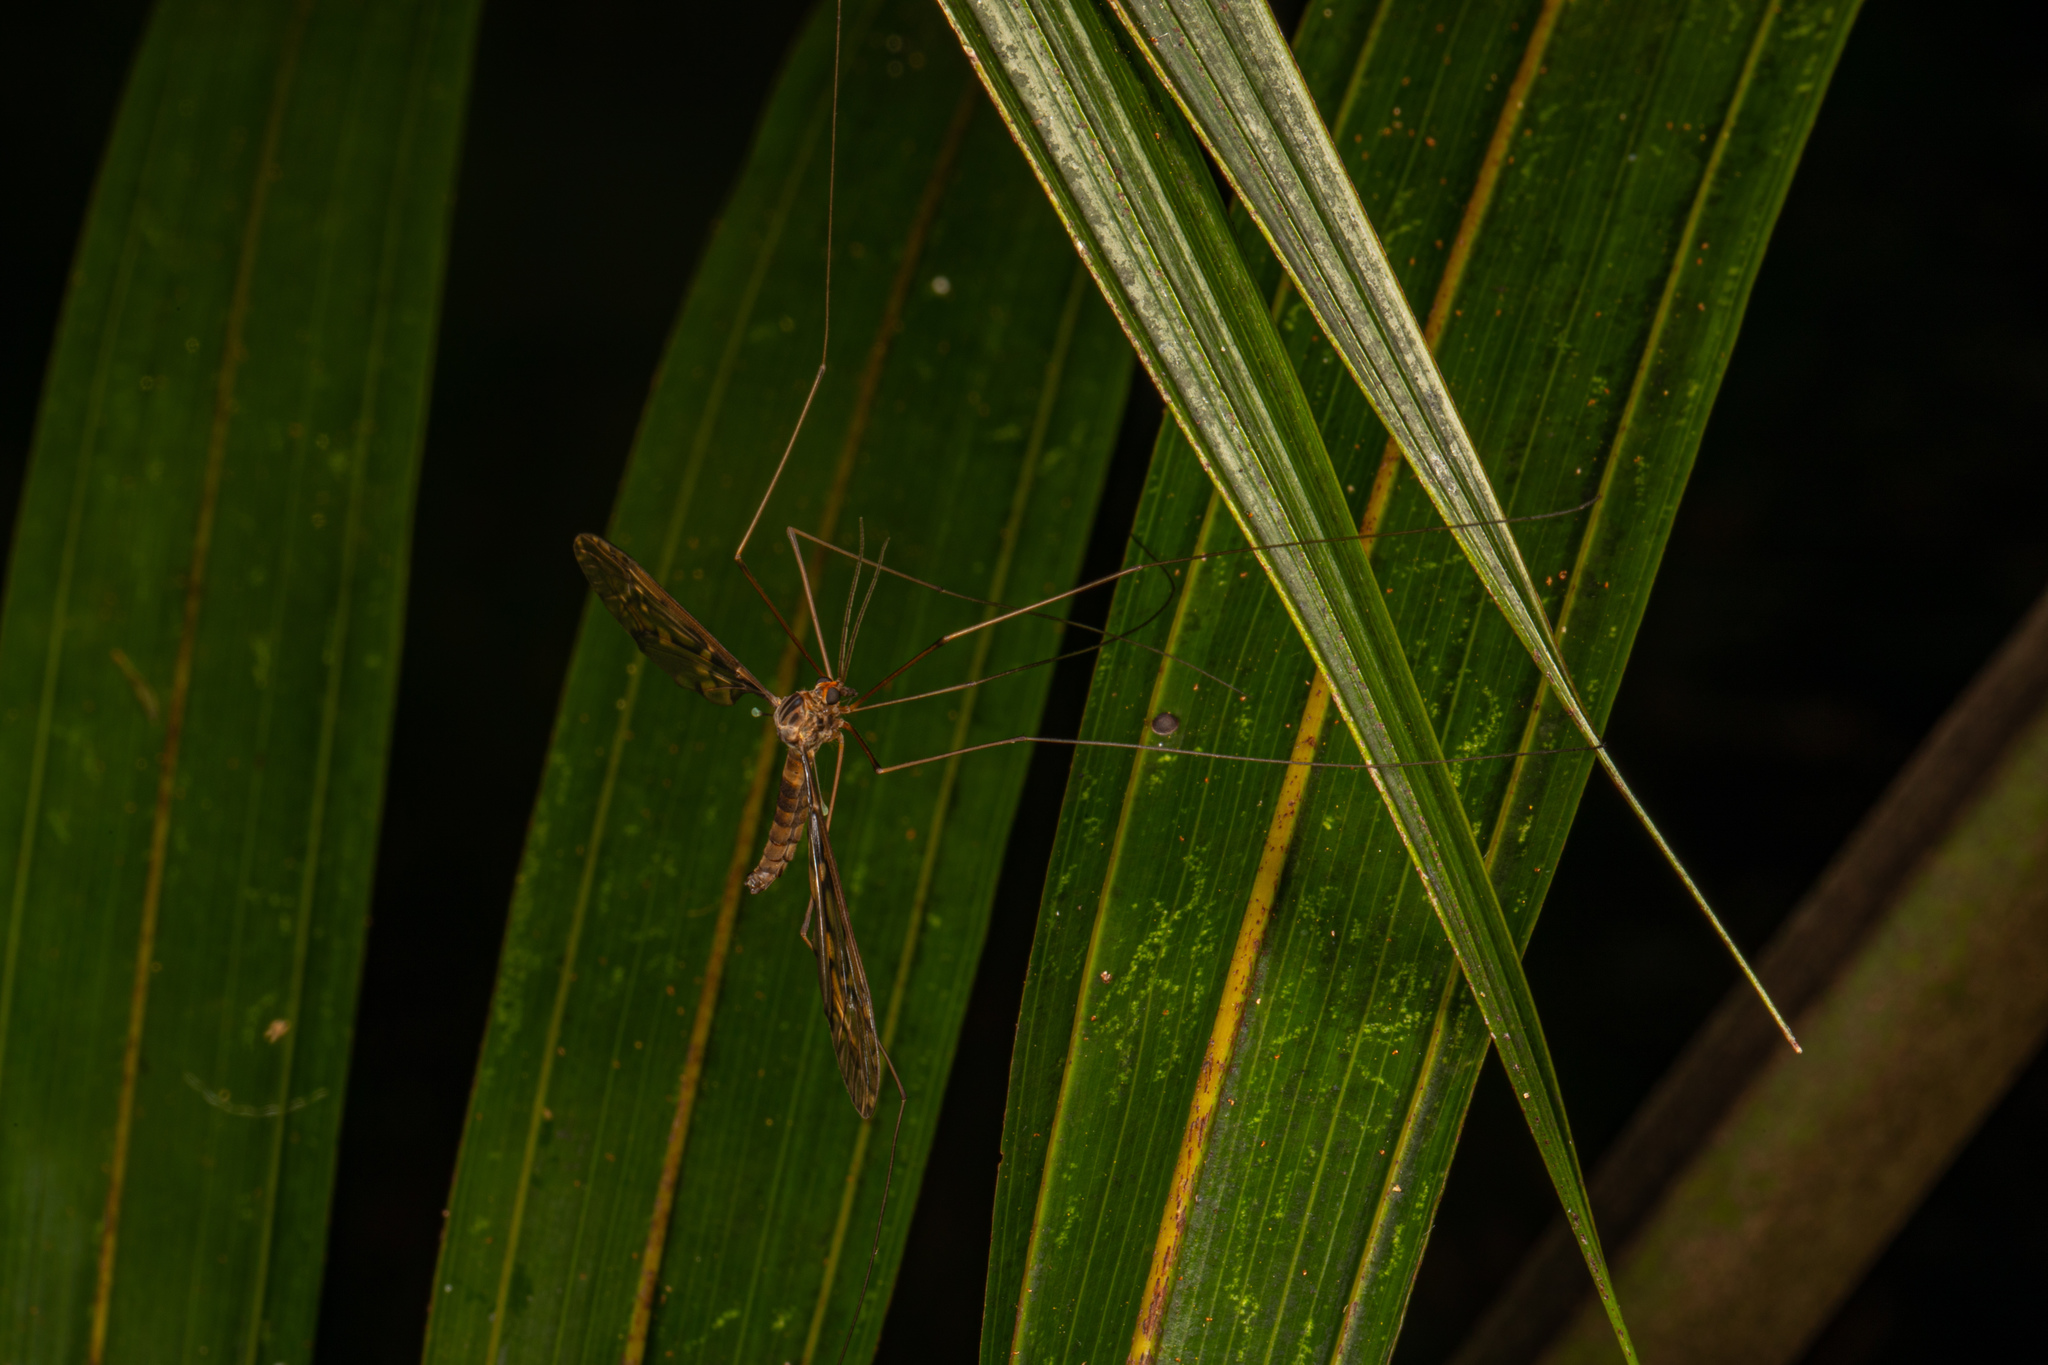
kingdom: Animalia
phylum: Arthropoda
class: Insecta
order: Diptera
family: Tipulidae
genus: Leptotarsus
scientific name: Leptotarsus binotatus
